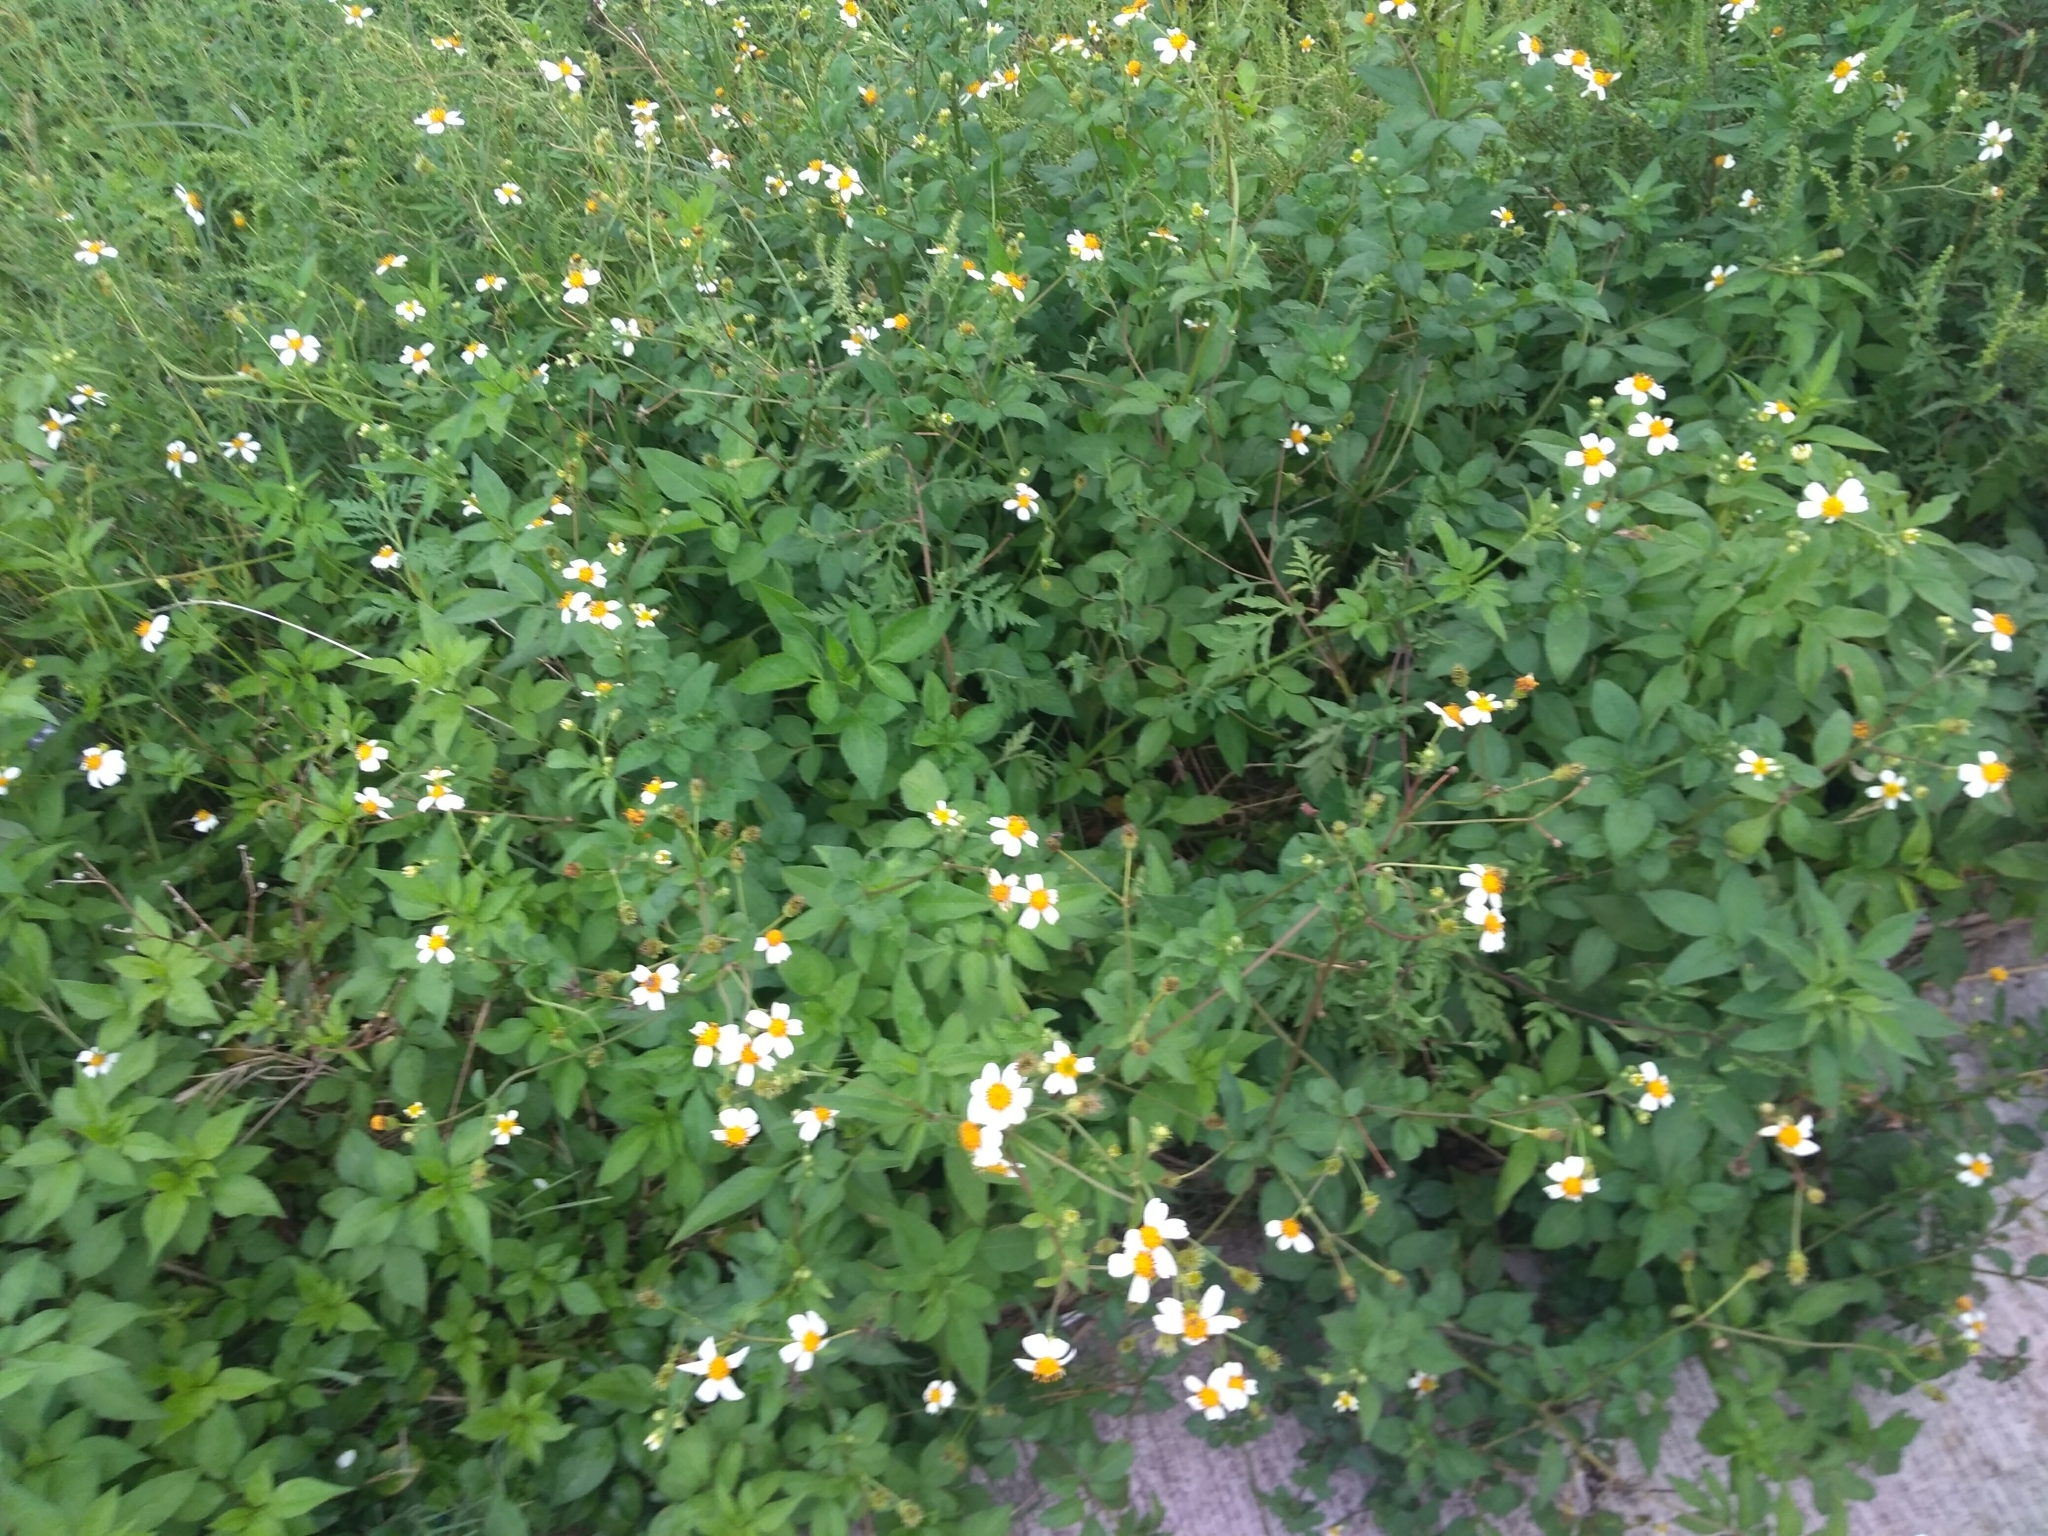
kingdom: Plantae
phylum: Tracheophyta
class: Magnoliopsida
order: Asterales
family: Asteraceae
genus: Bidens
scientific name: Bidens alba
